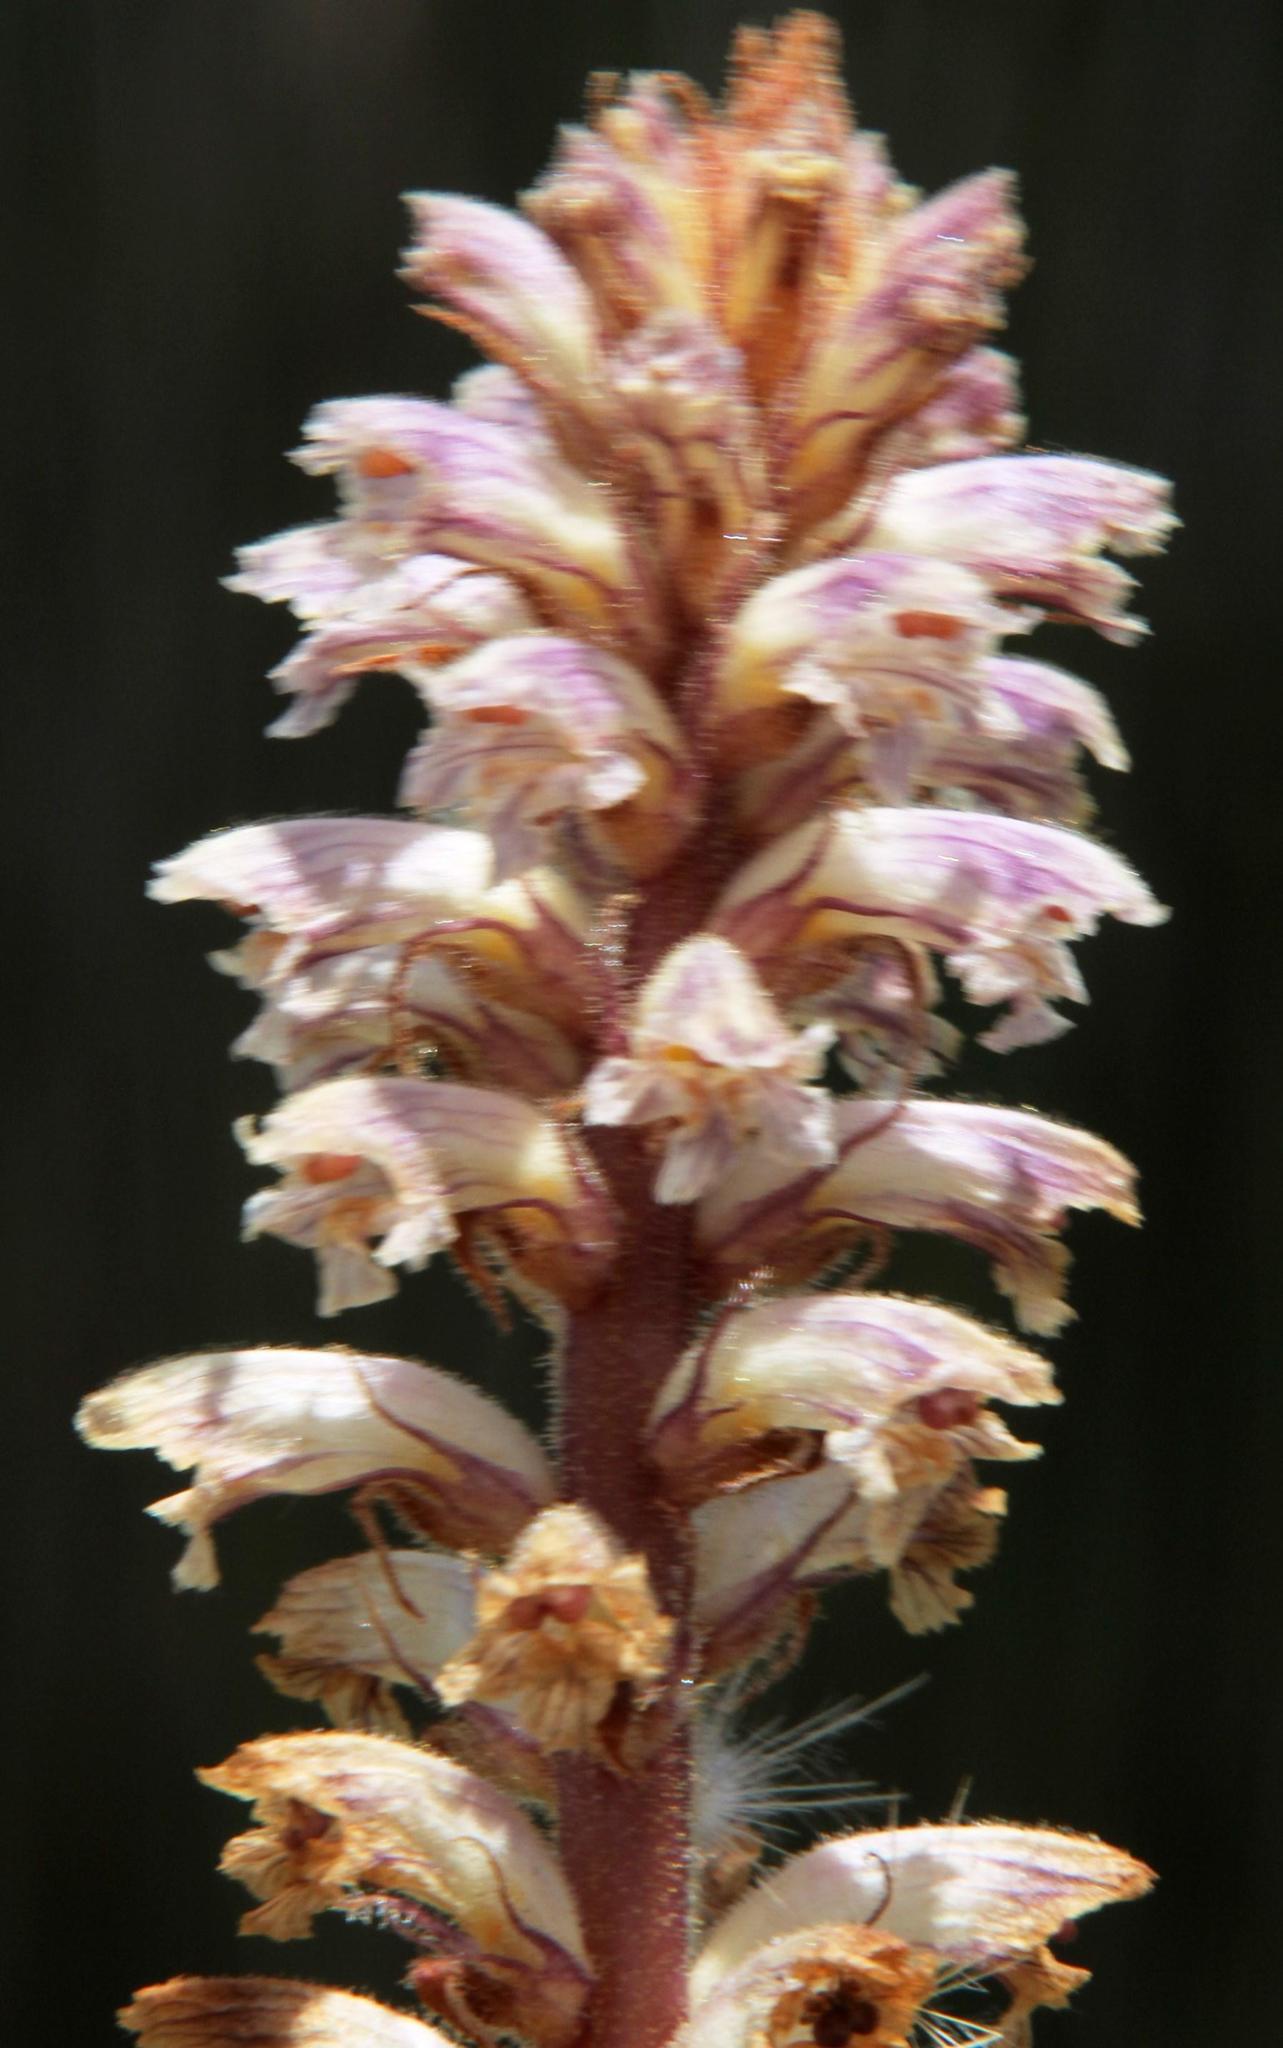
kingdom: Plantae
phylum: Tracheophyta
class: Magnoliopsida
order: Lamiales
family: Orobanchaceae
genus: Orobanche
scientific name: Orobanche minor
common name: Common broomrape
